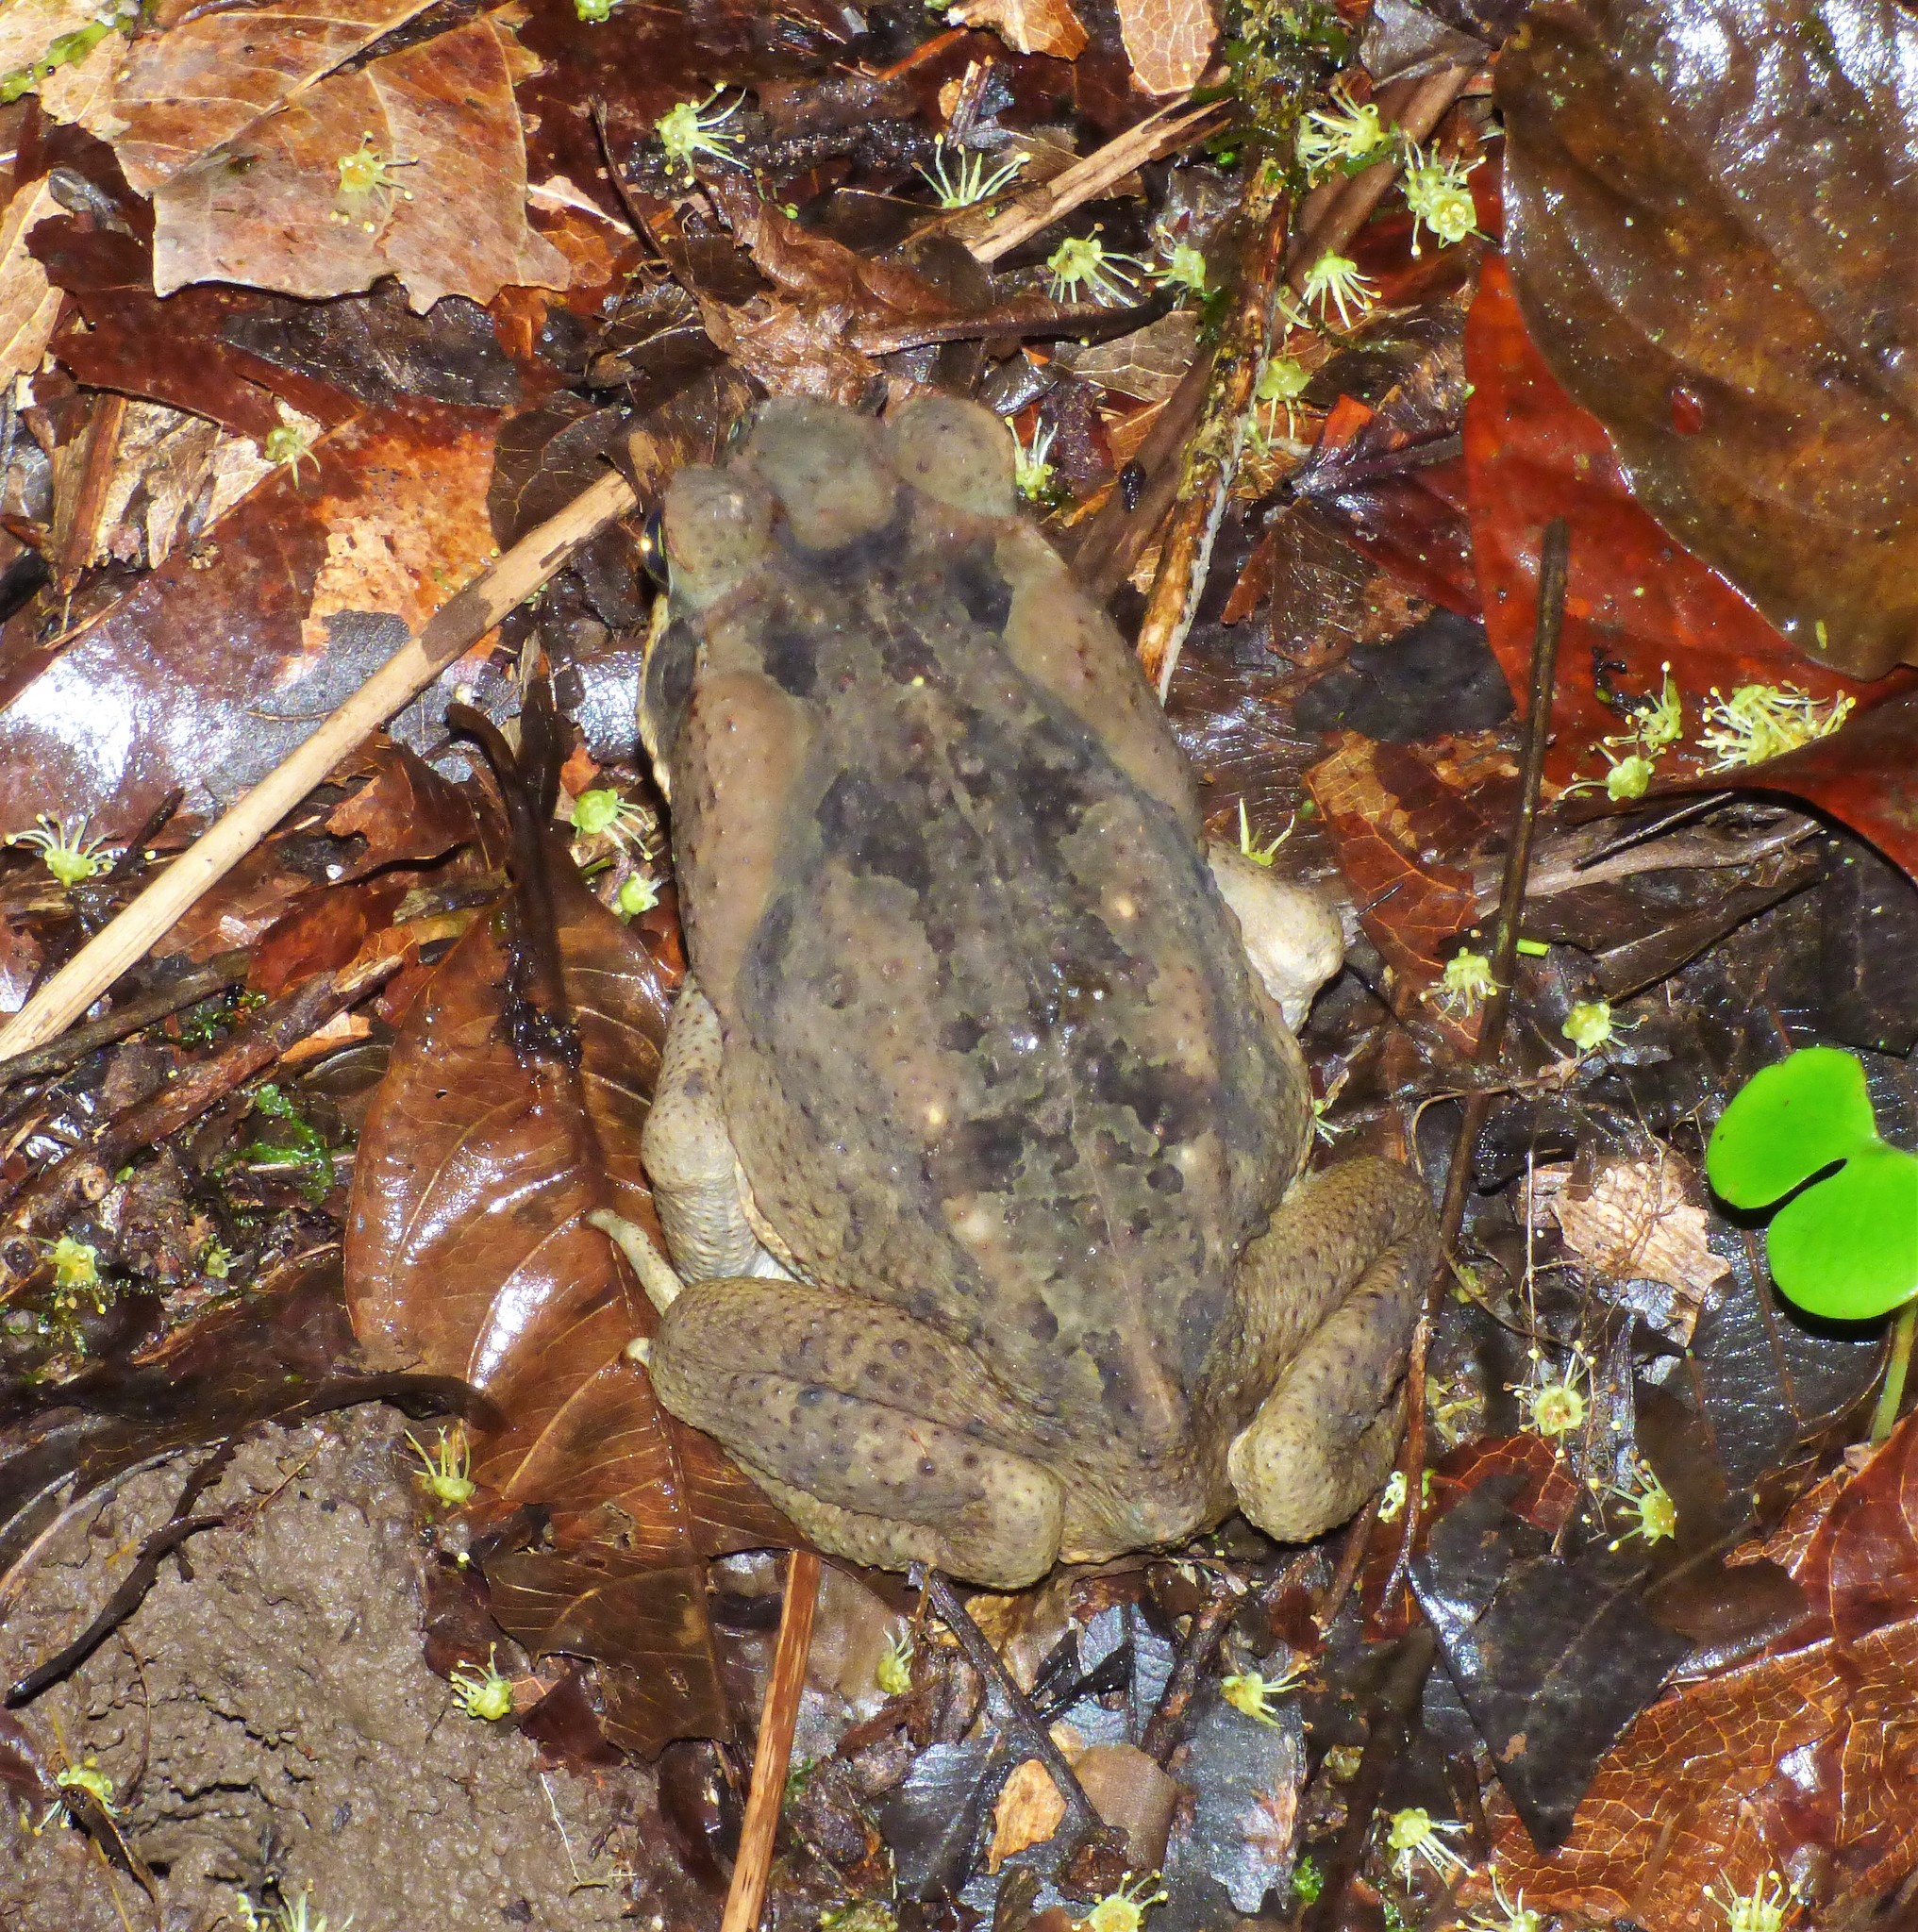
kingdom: Animalia
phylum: Chordata
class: Amphibia
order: Anura
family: Bufonidae
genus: Rhinella
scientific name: Rhinella horribilis
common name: Mesoamerican cane toad
